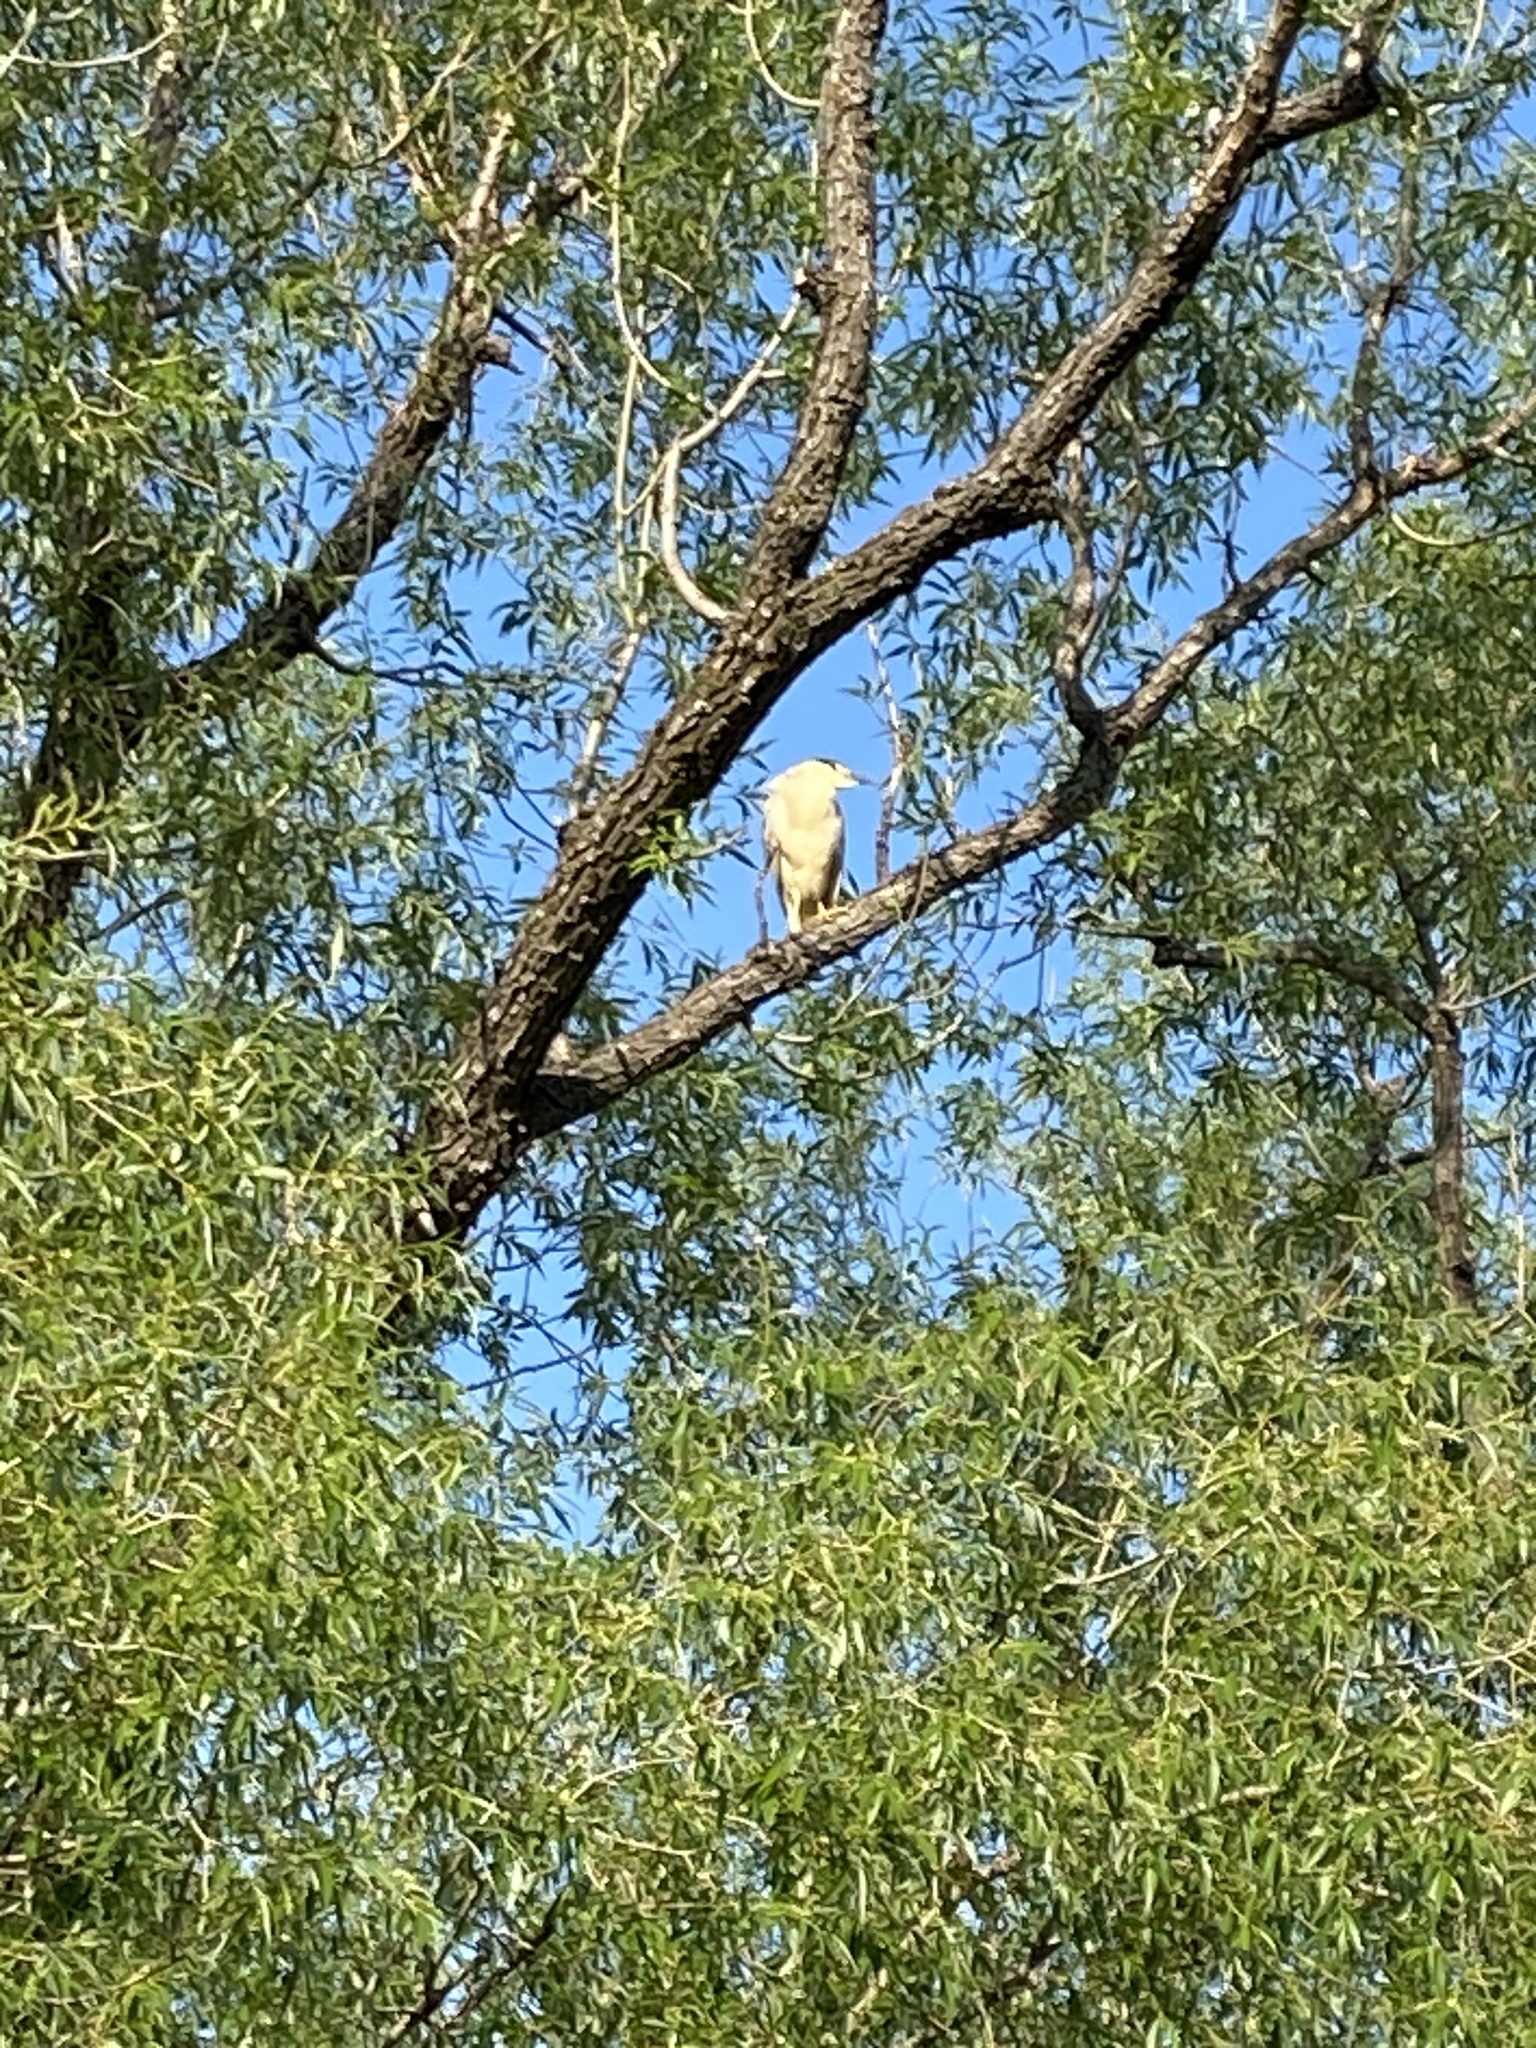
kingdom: Animalia
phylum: Chordata
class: Aves
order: Pelecaniformes
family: Ardeidae
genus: Nycticorax
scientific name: Nycticorax nycticorax
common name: Black-crowned night heron
